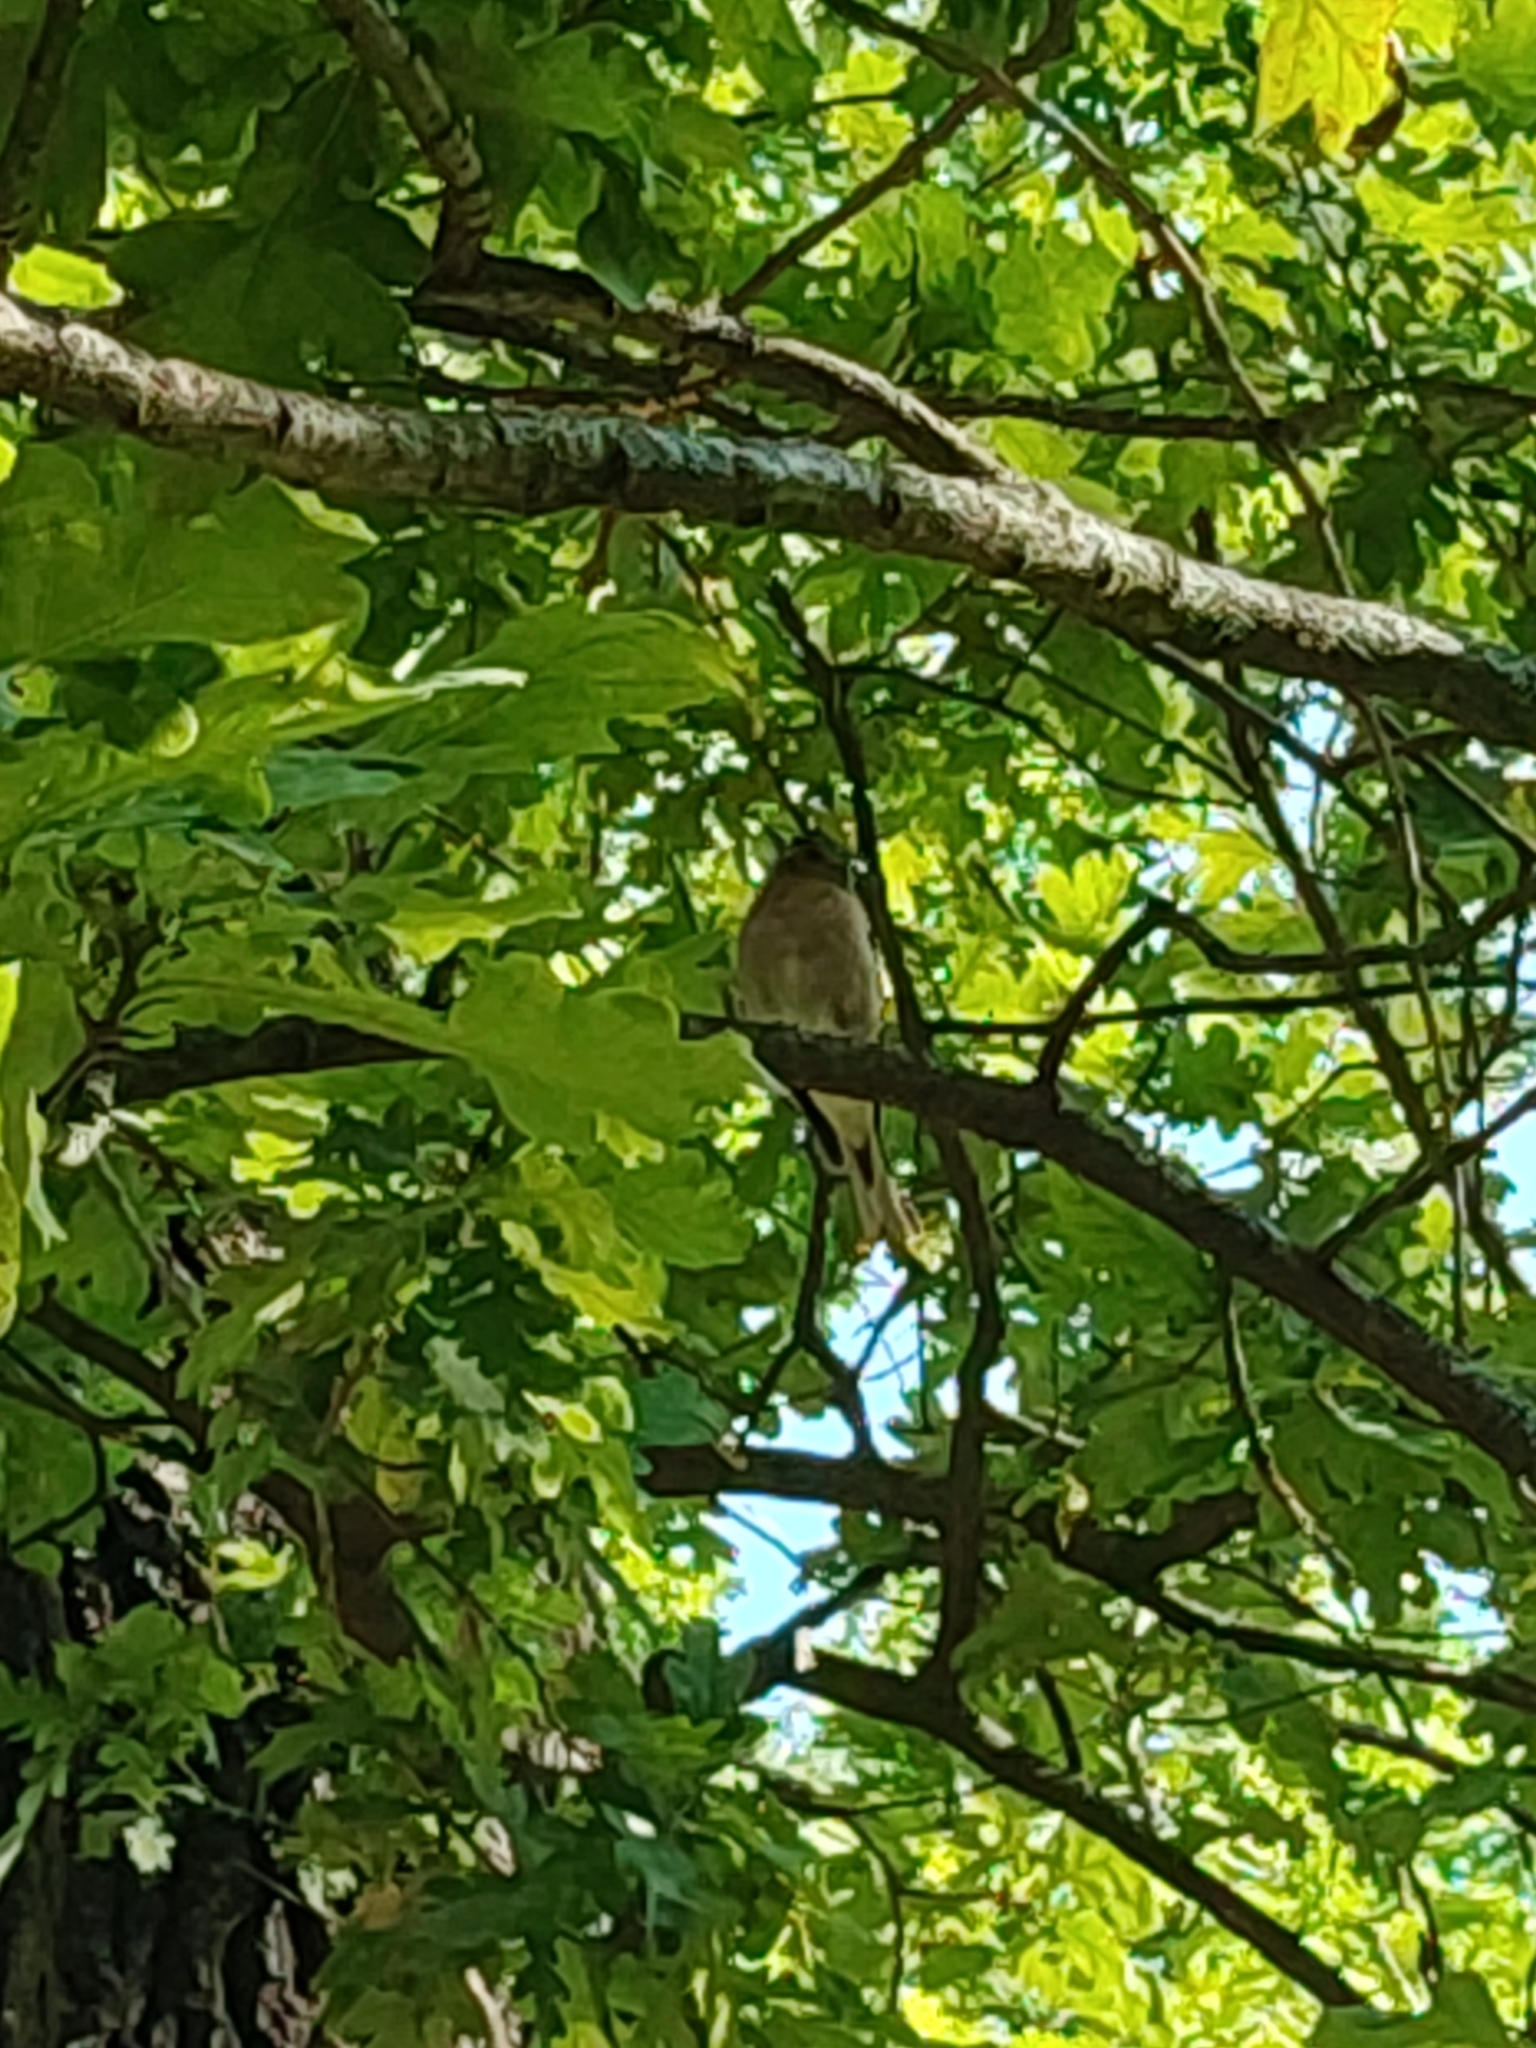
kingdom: Animalia
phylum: Chordata
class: Aves
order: Passeriformes
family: Fringillidae
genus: Fringilla
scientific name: Fringilla coelebs
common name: Common chaffinch
